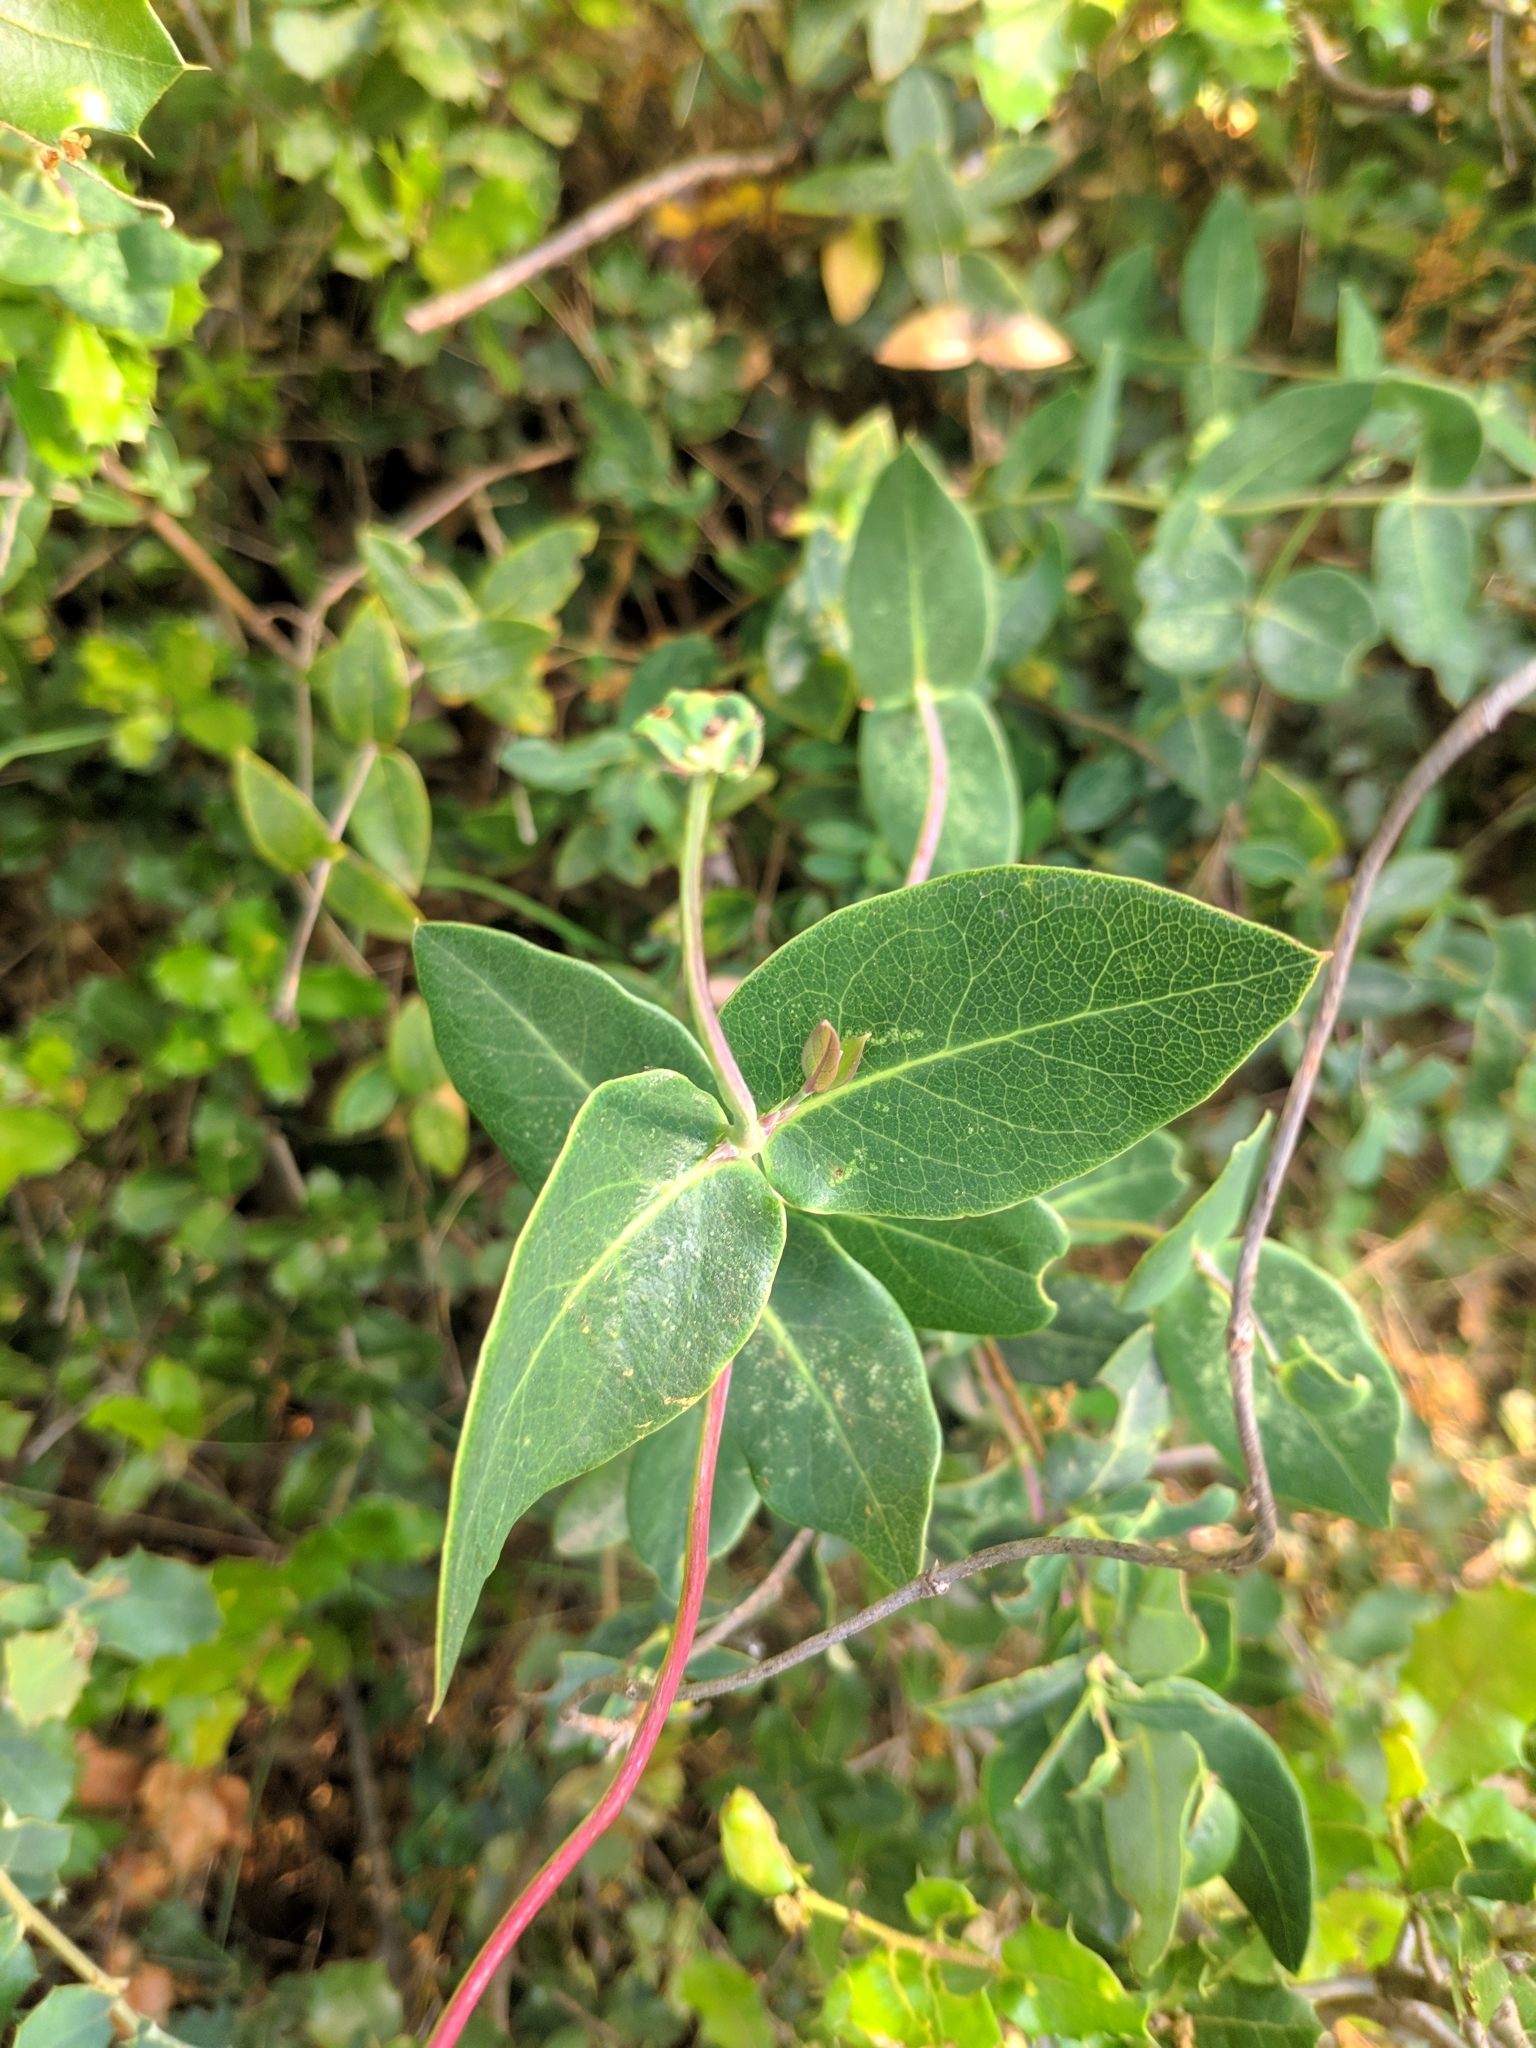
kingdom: Plantae
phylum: Tracheophyta
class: Magnoliopsida
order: Dipsacales
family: Caprifoliaceae
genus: Lonicera
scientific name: Lonicera implexa
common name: Minorca honeysuckle
